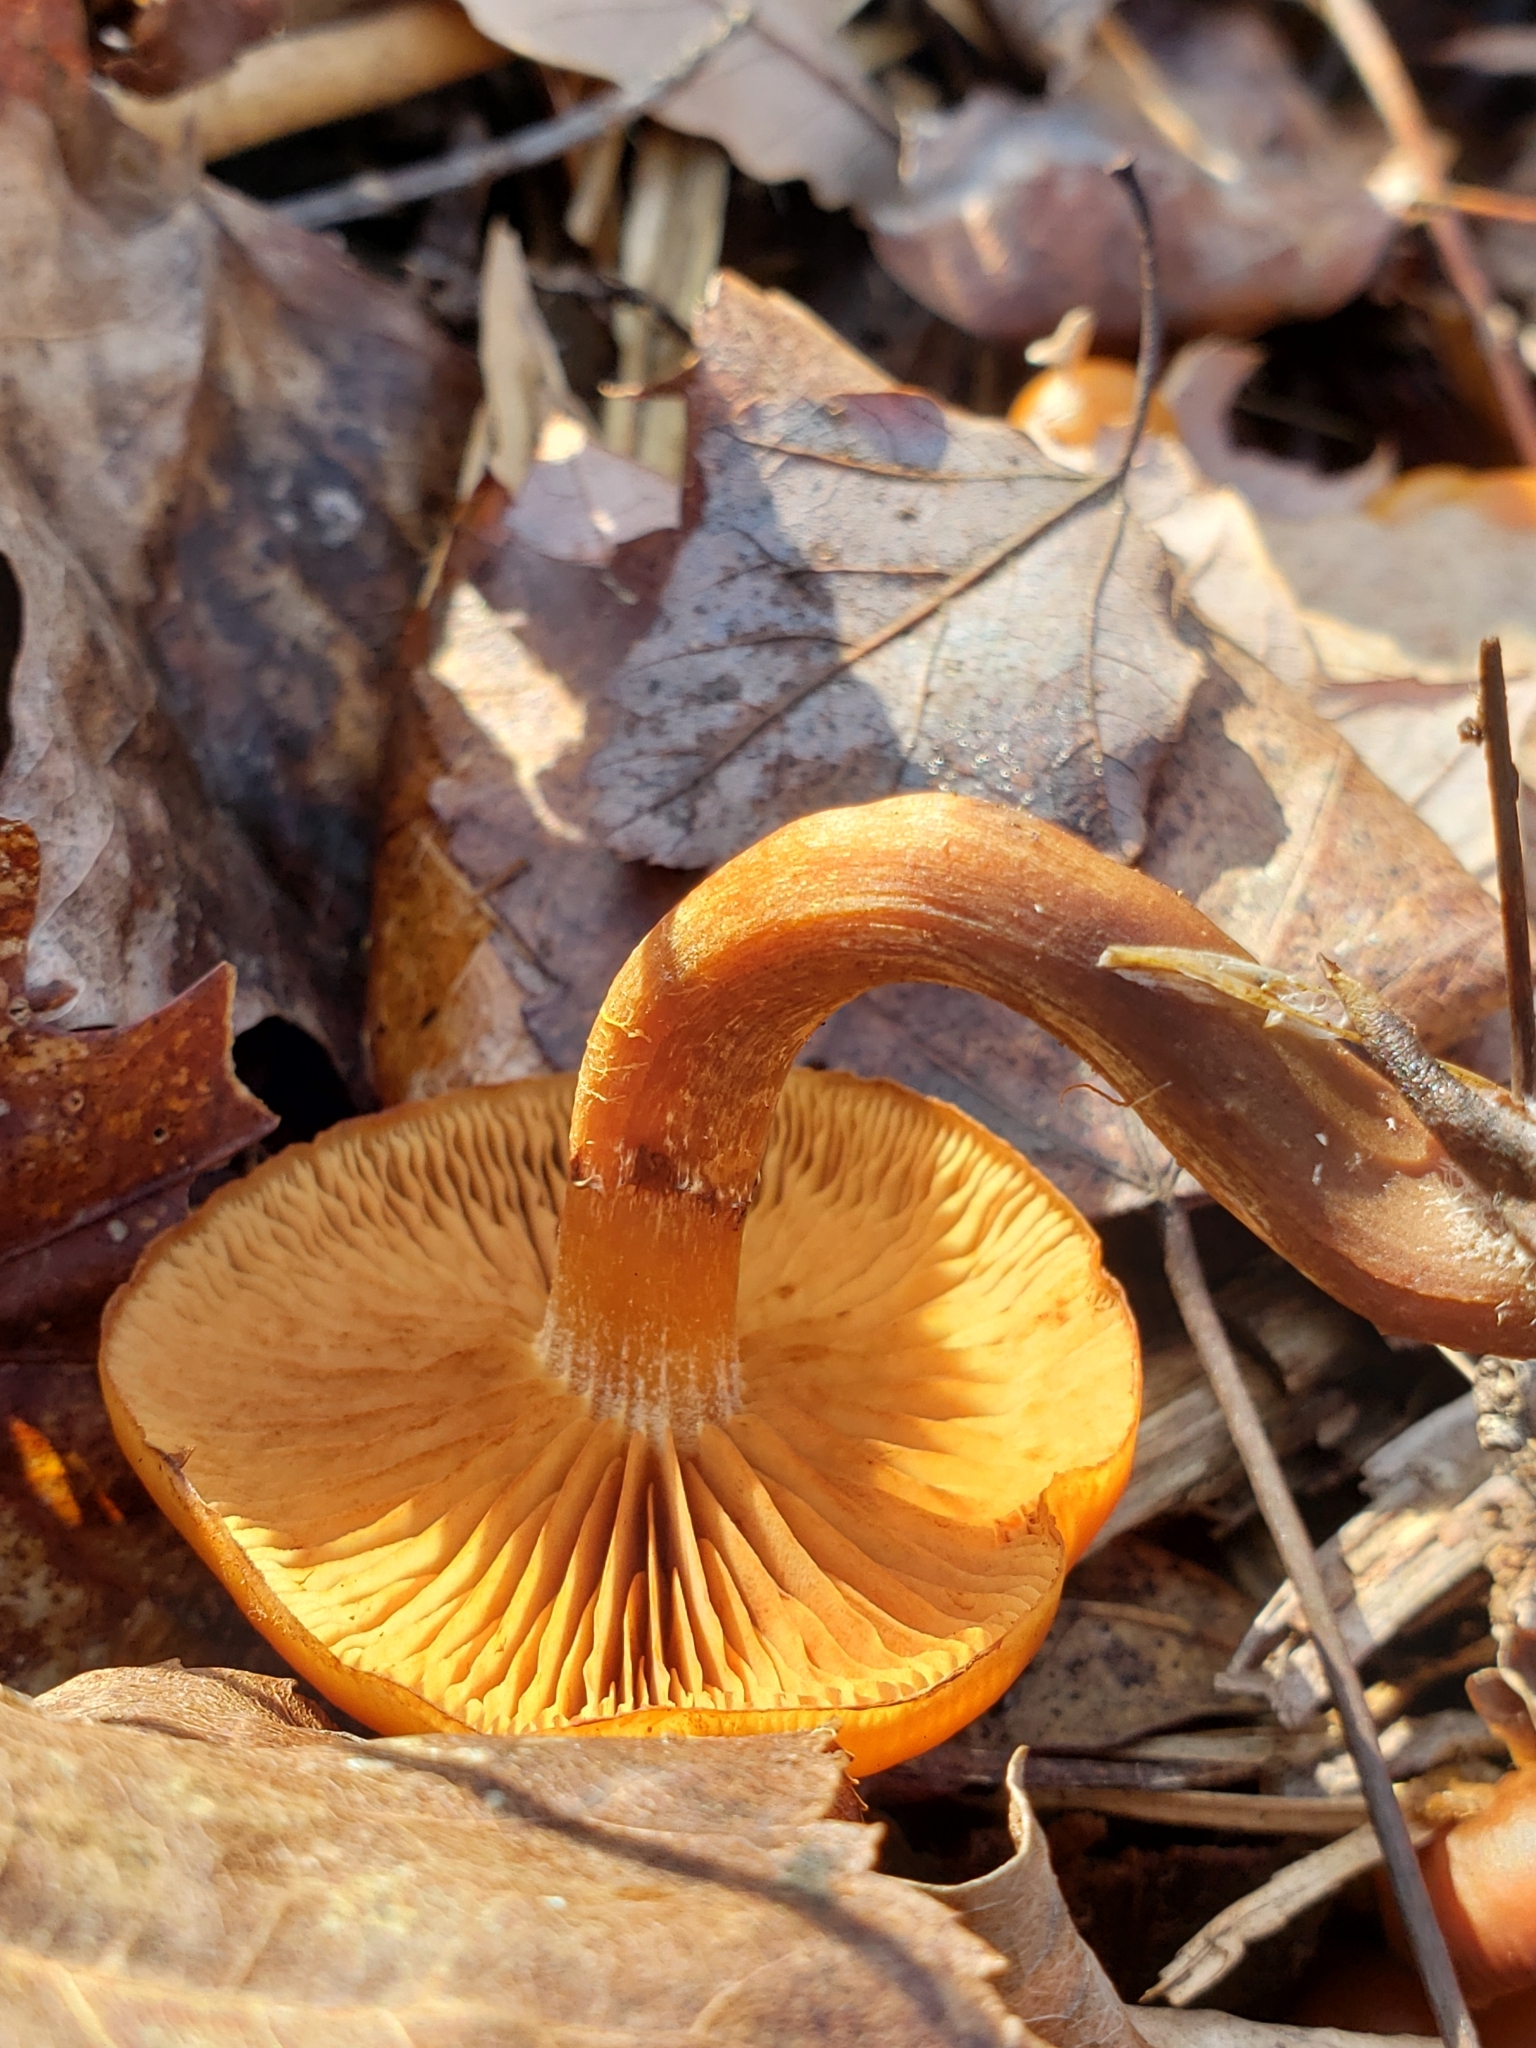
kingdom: Fungi
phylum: Basidiomycota
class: Agaricomycetes
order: Agaricales
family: Hymenogastraceae
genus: Galerina
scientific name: Galerina marginata
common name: Funeral bell
